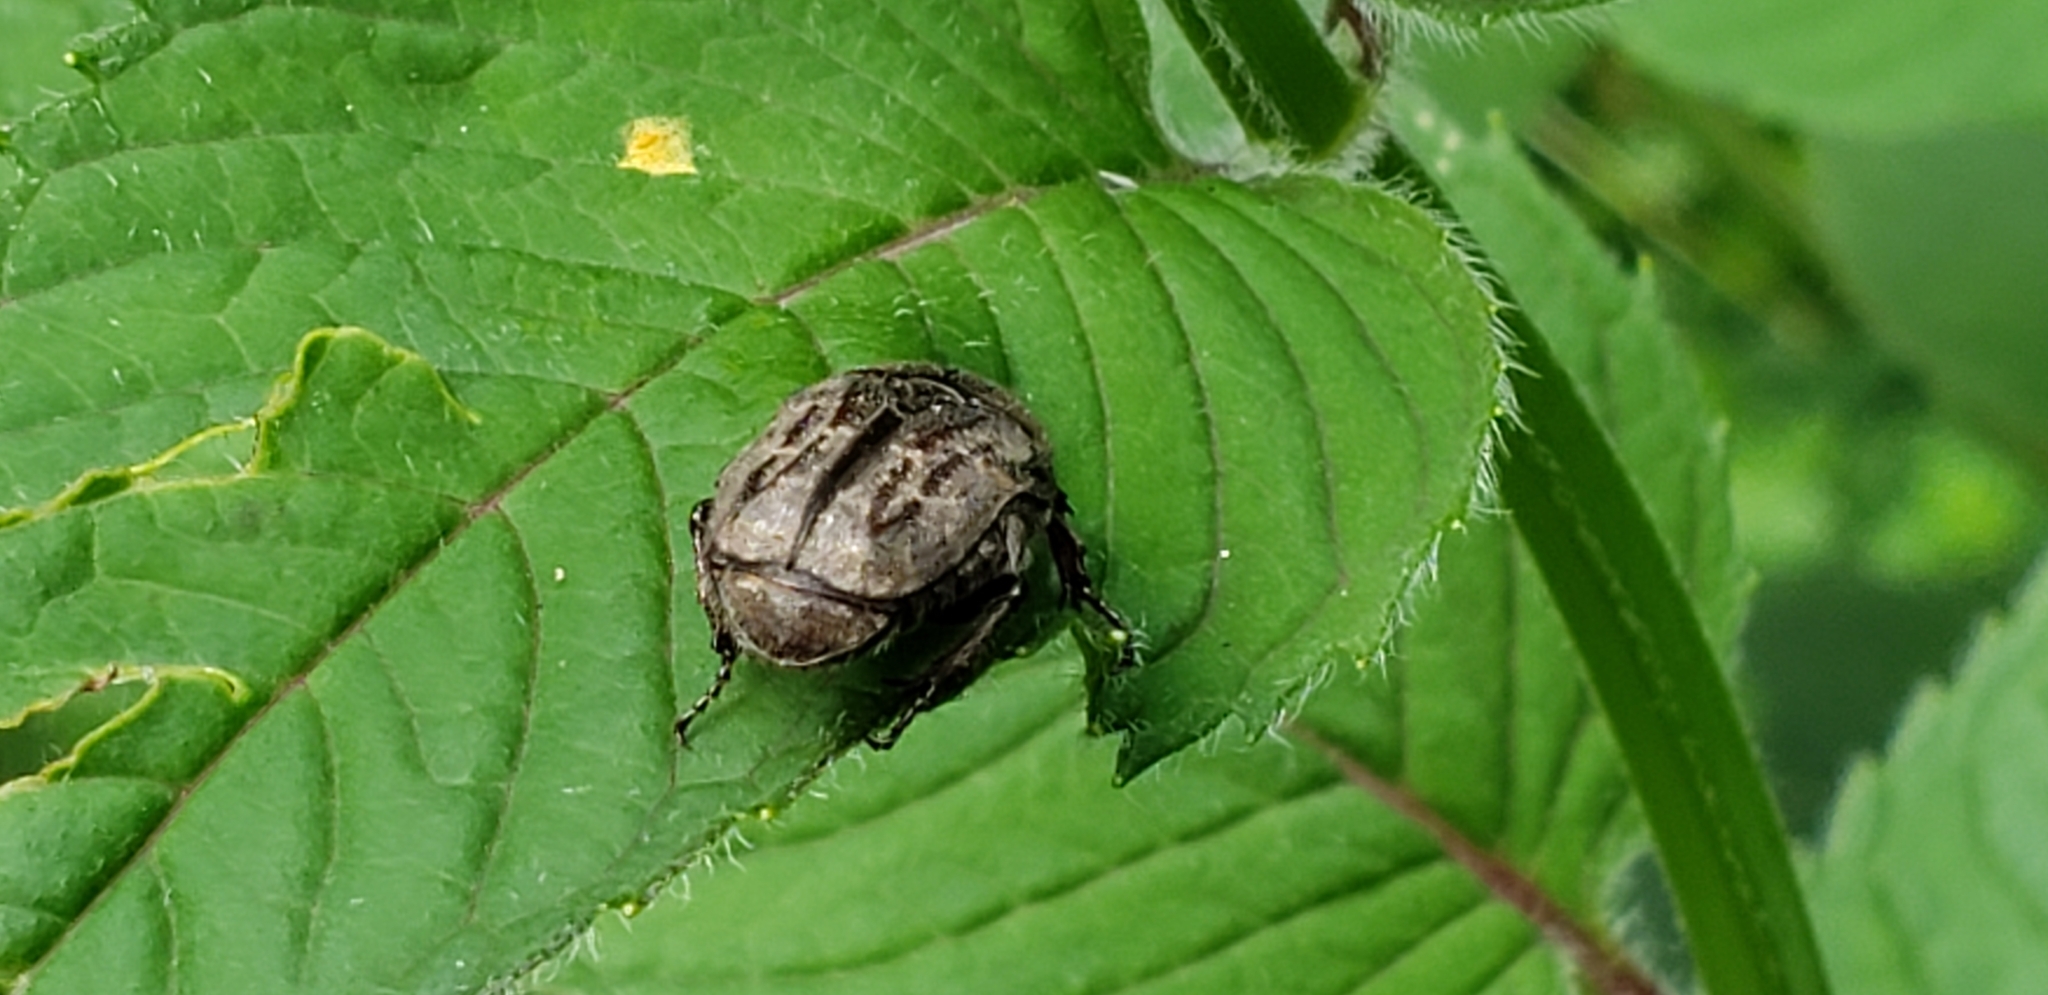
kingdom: Animalia
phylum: Arthropoda
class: Insecta
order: Coleoptera
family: Scarabaeidae
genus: Euphoria
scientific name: Euphoria sepulcralis
